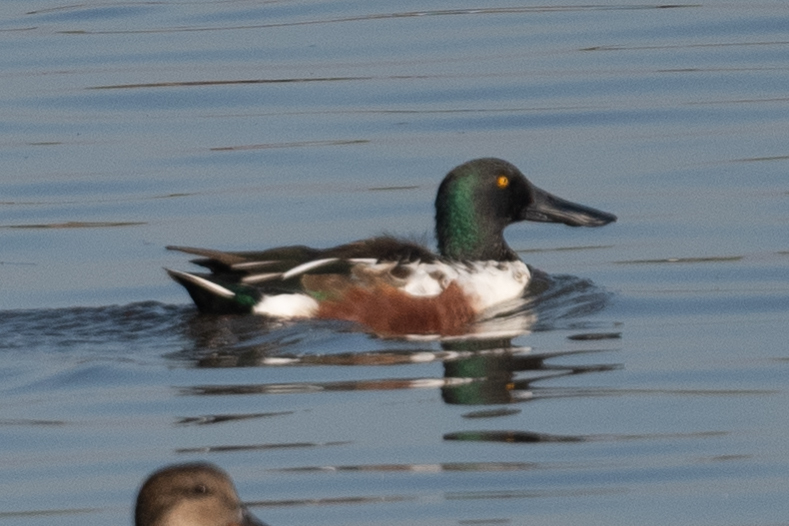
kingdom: Animalia
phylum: Chordata
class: Aves
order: Anseriformes
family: Anatidae
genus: Spatula
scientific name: Spatula clypeata
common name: Northern shoveler
